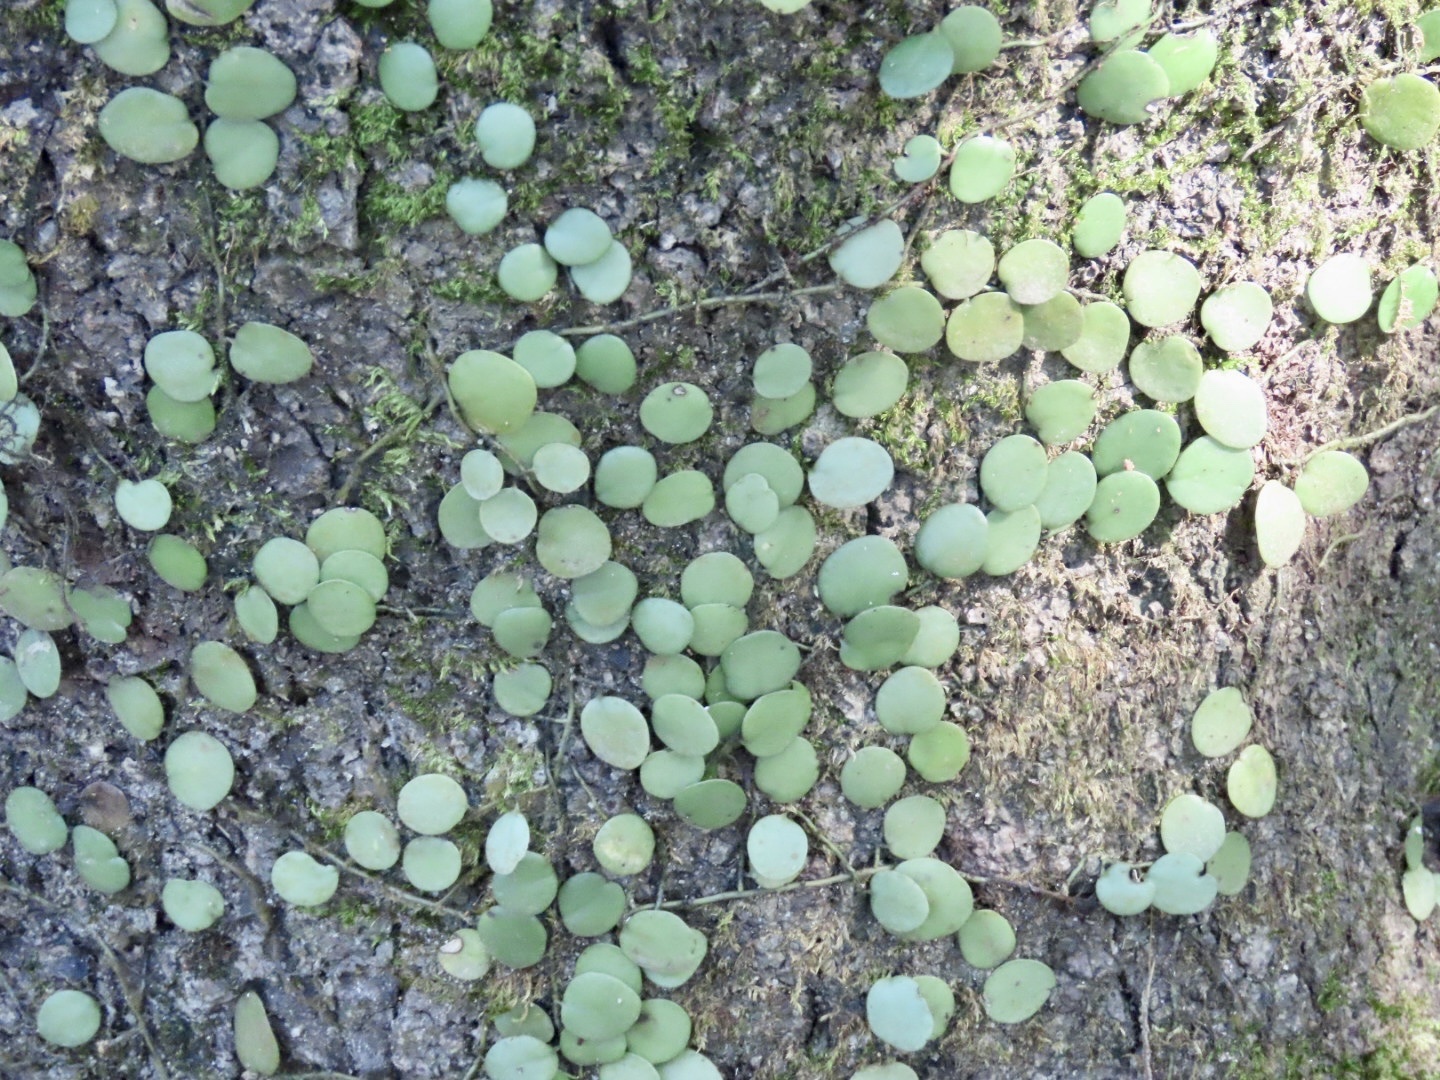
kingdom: Plantae
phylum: Tracheophyta
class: Polypodiopsida
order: Polypodiales
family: Polypodiaceae
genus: Lepisorus
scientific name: Lepisorus microphyllus
